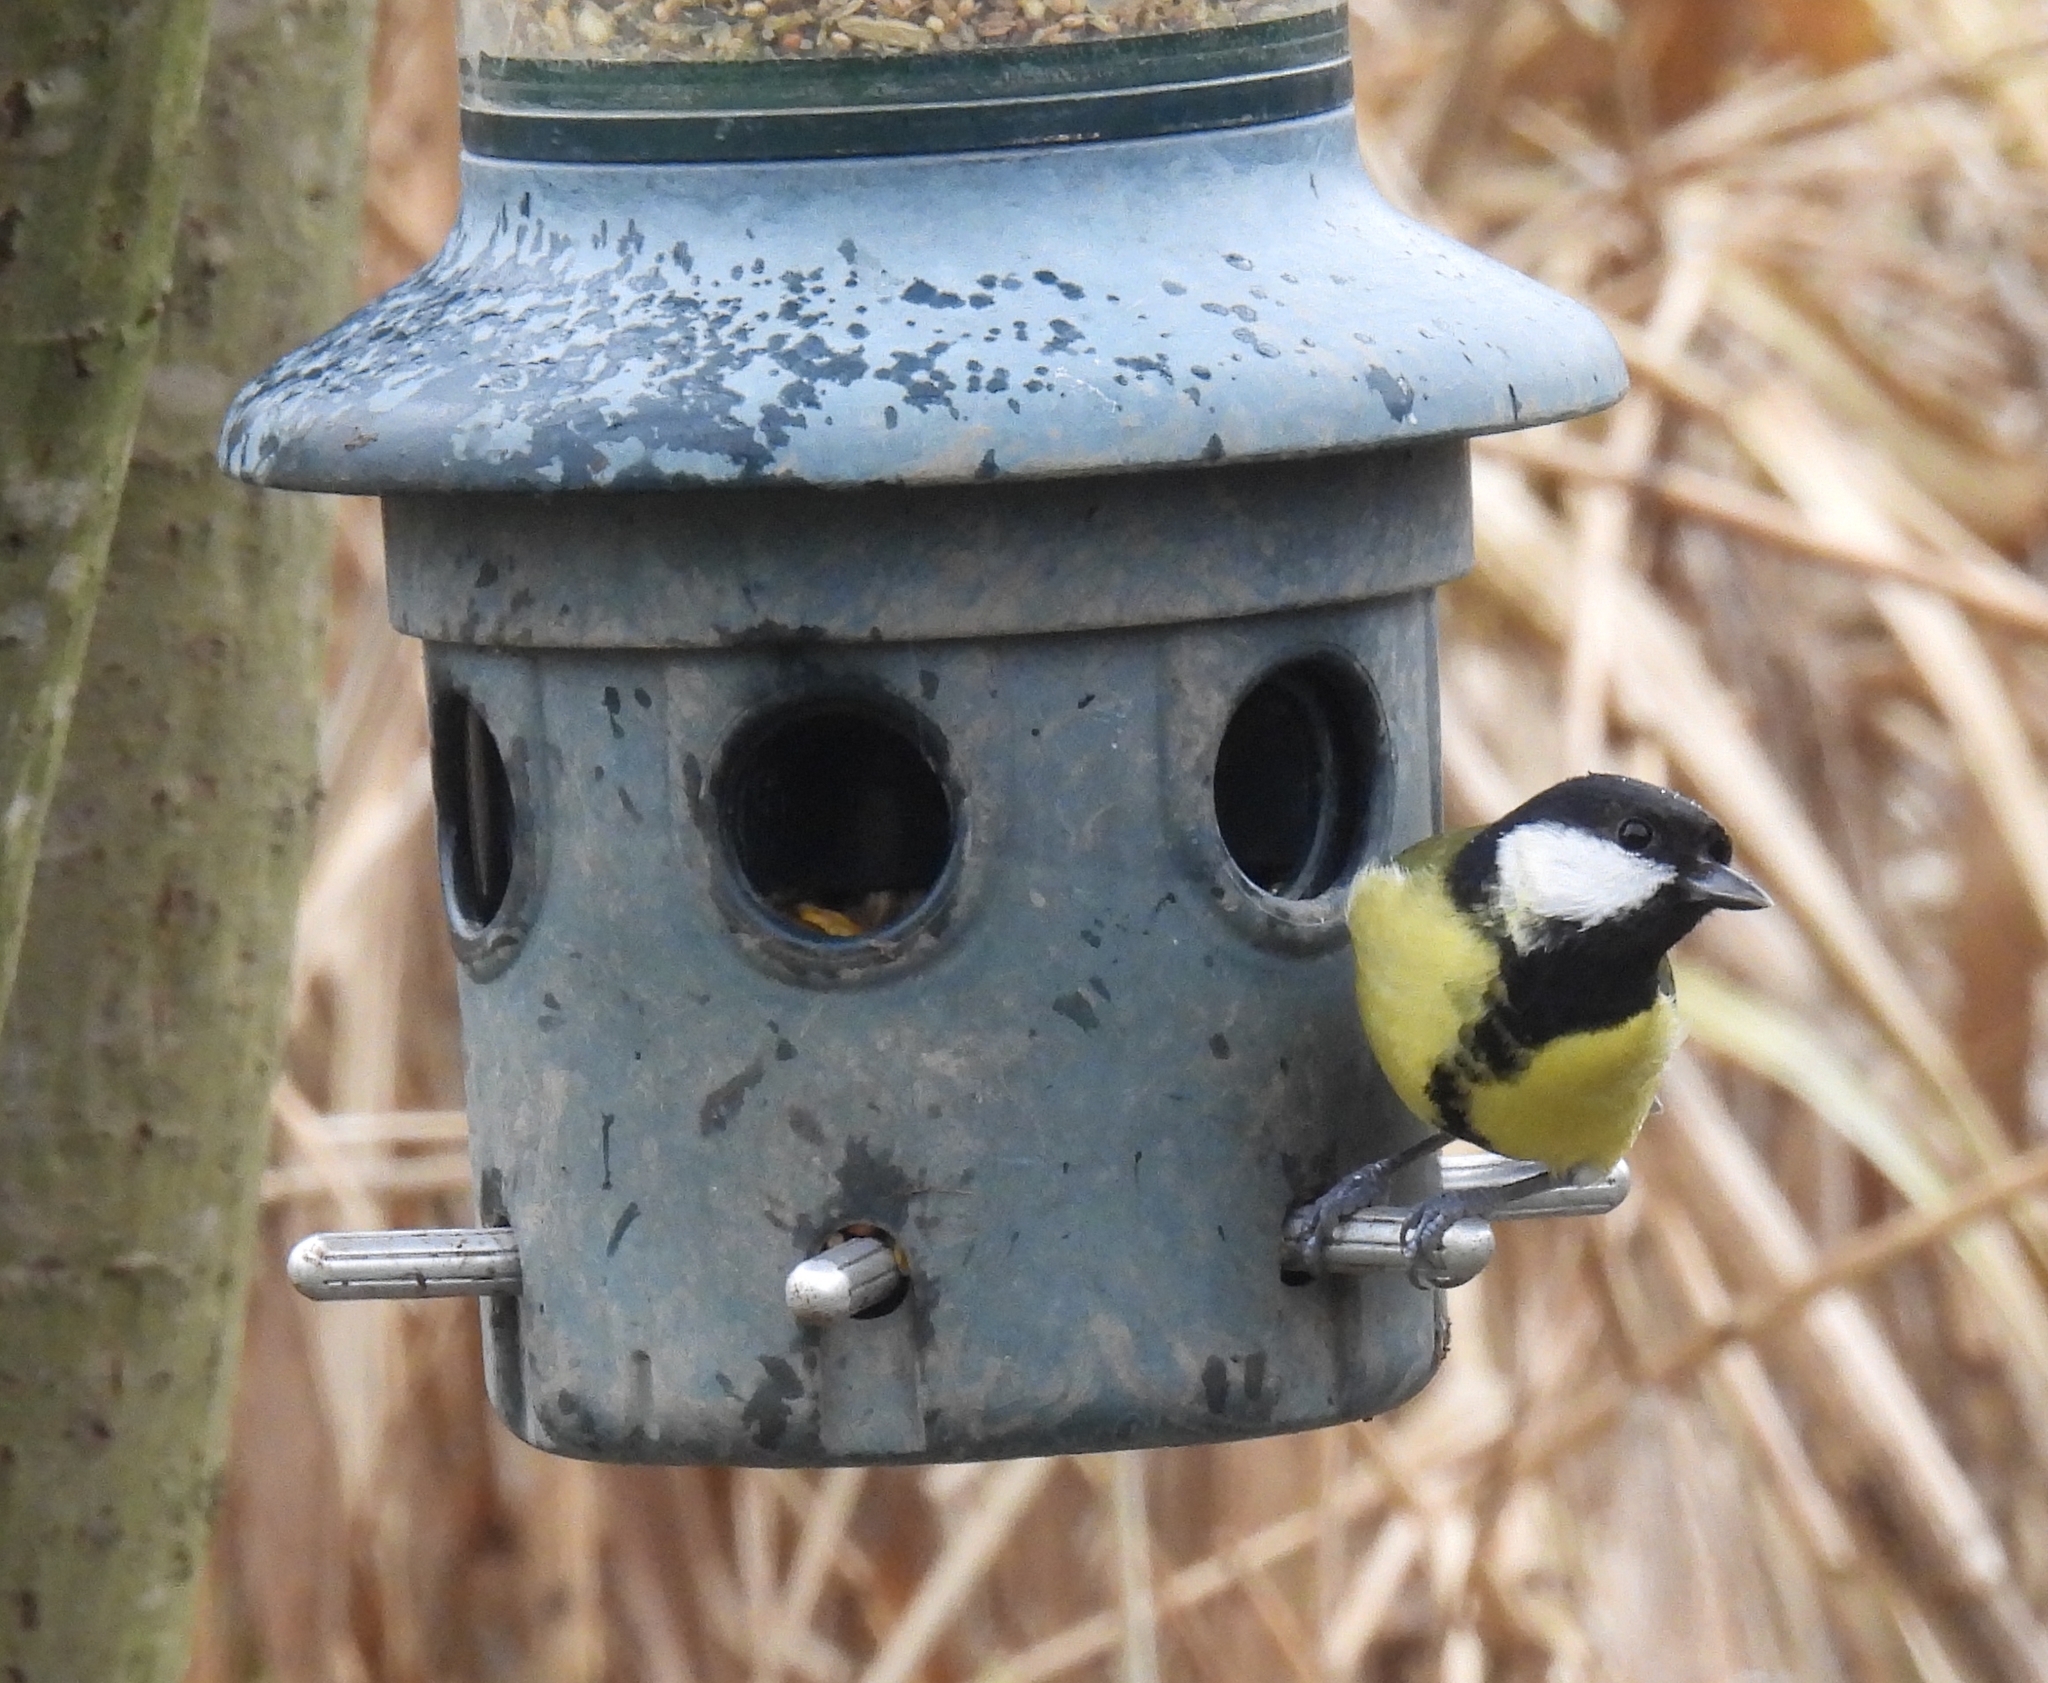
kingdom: Animalia
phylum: Chordata
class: Aves
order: Passeriformes
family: Paridae
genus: Parus
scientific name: Parus major
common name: Great tit
